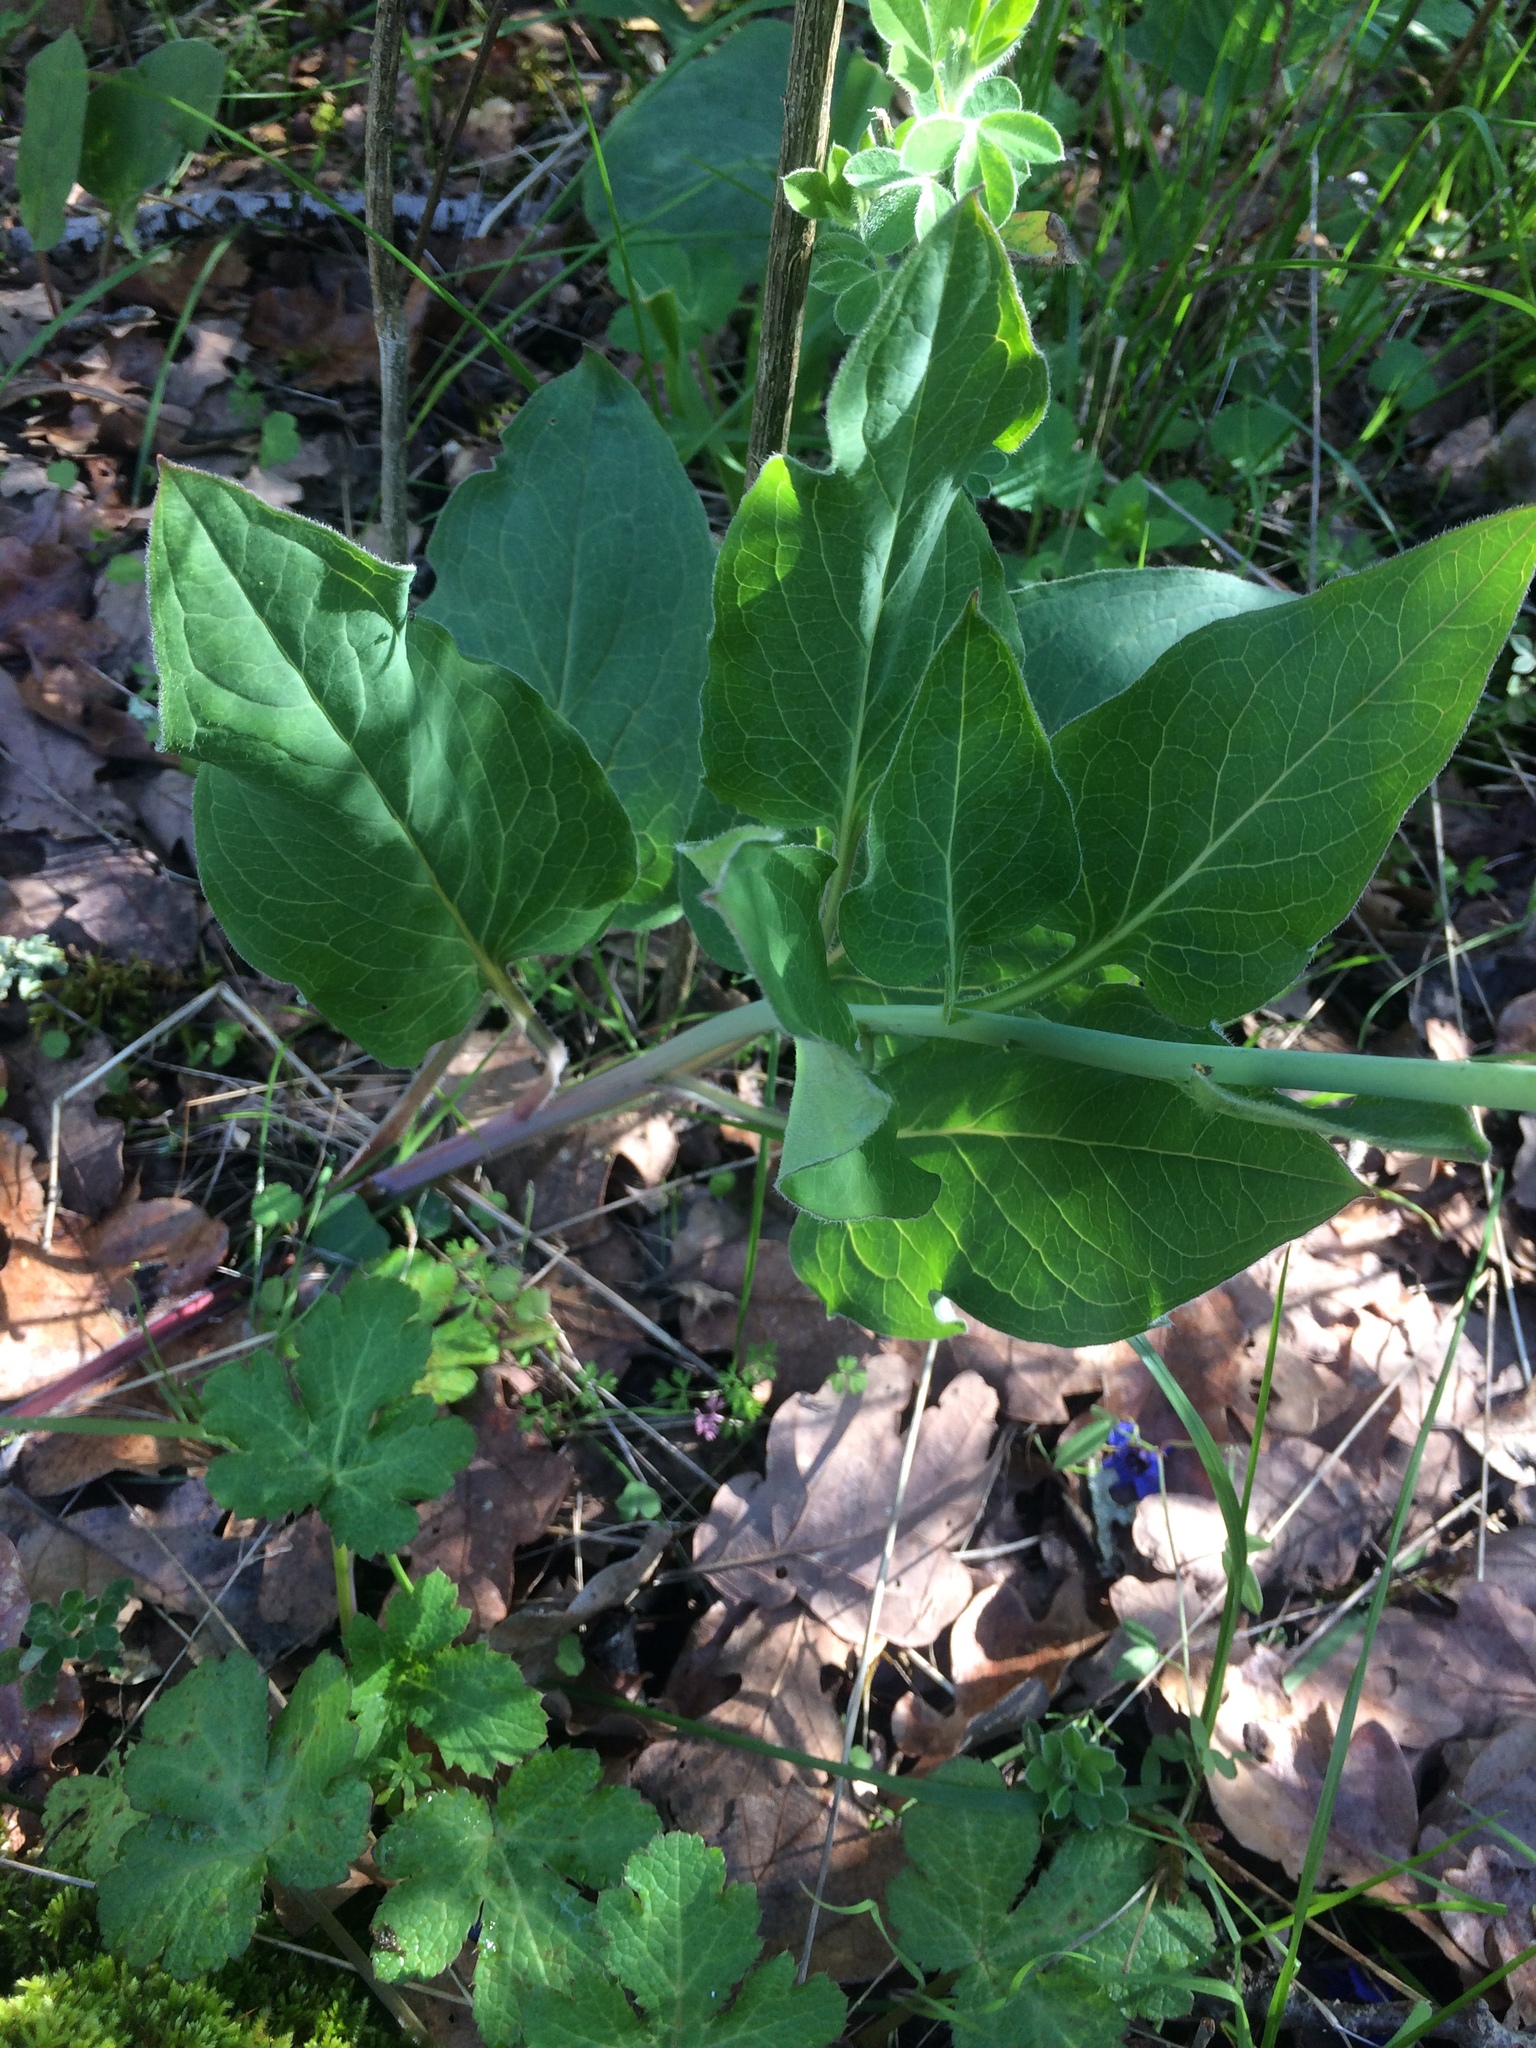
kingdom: Plantae
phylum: Tracheophyta
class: Magnoliopsida
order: Boraginales
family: Boraginaceae
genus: Adelinia
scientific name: Adelinia grande
